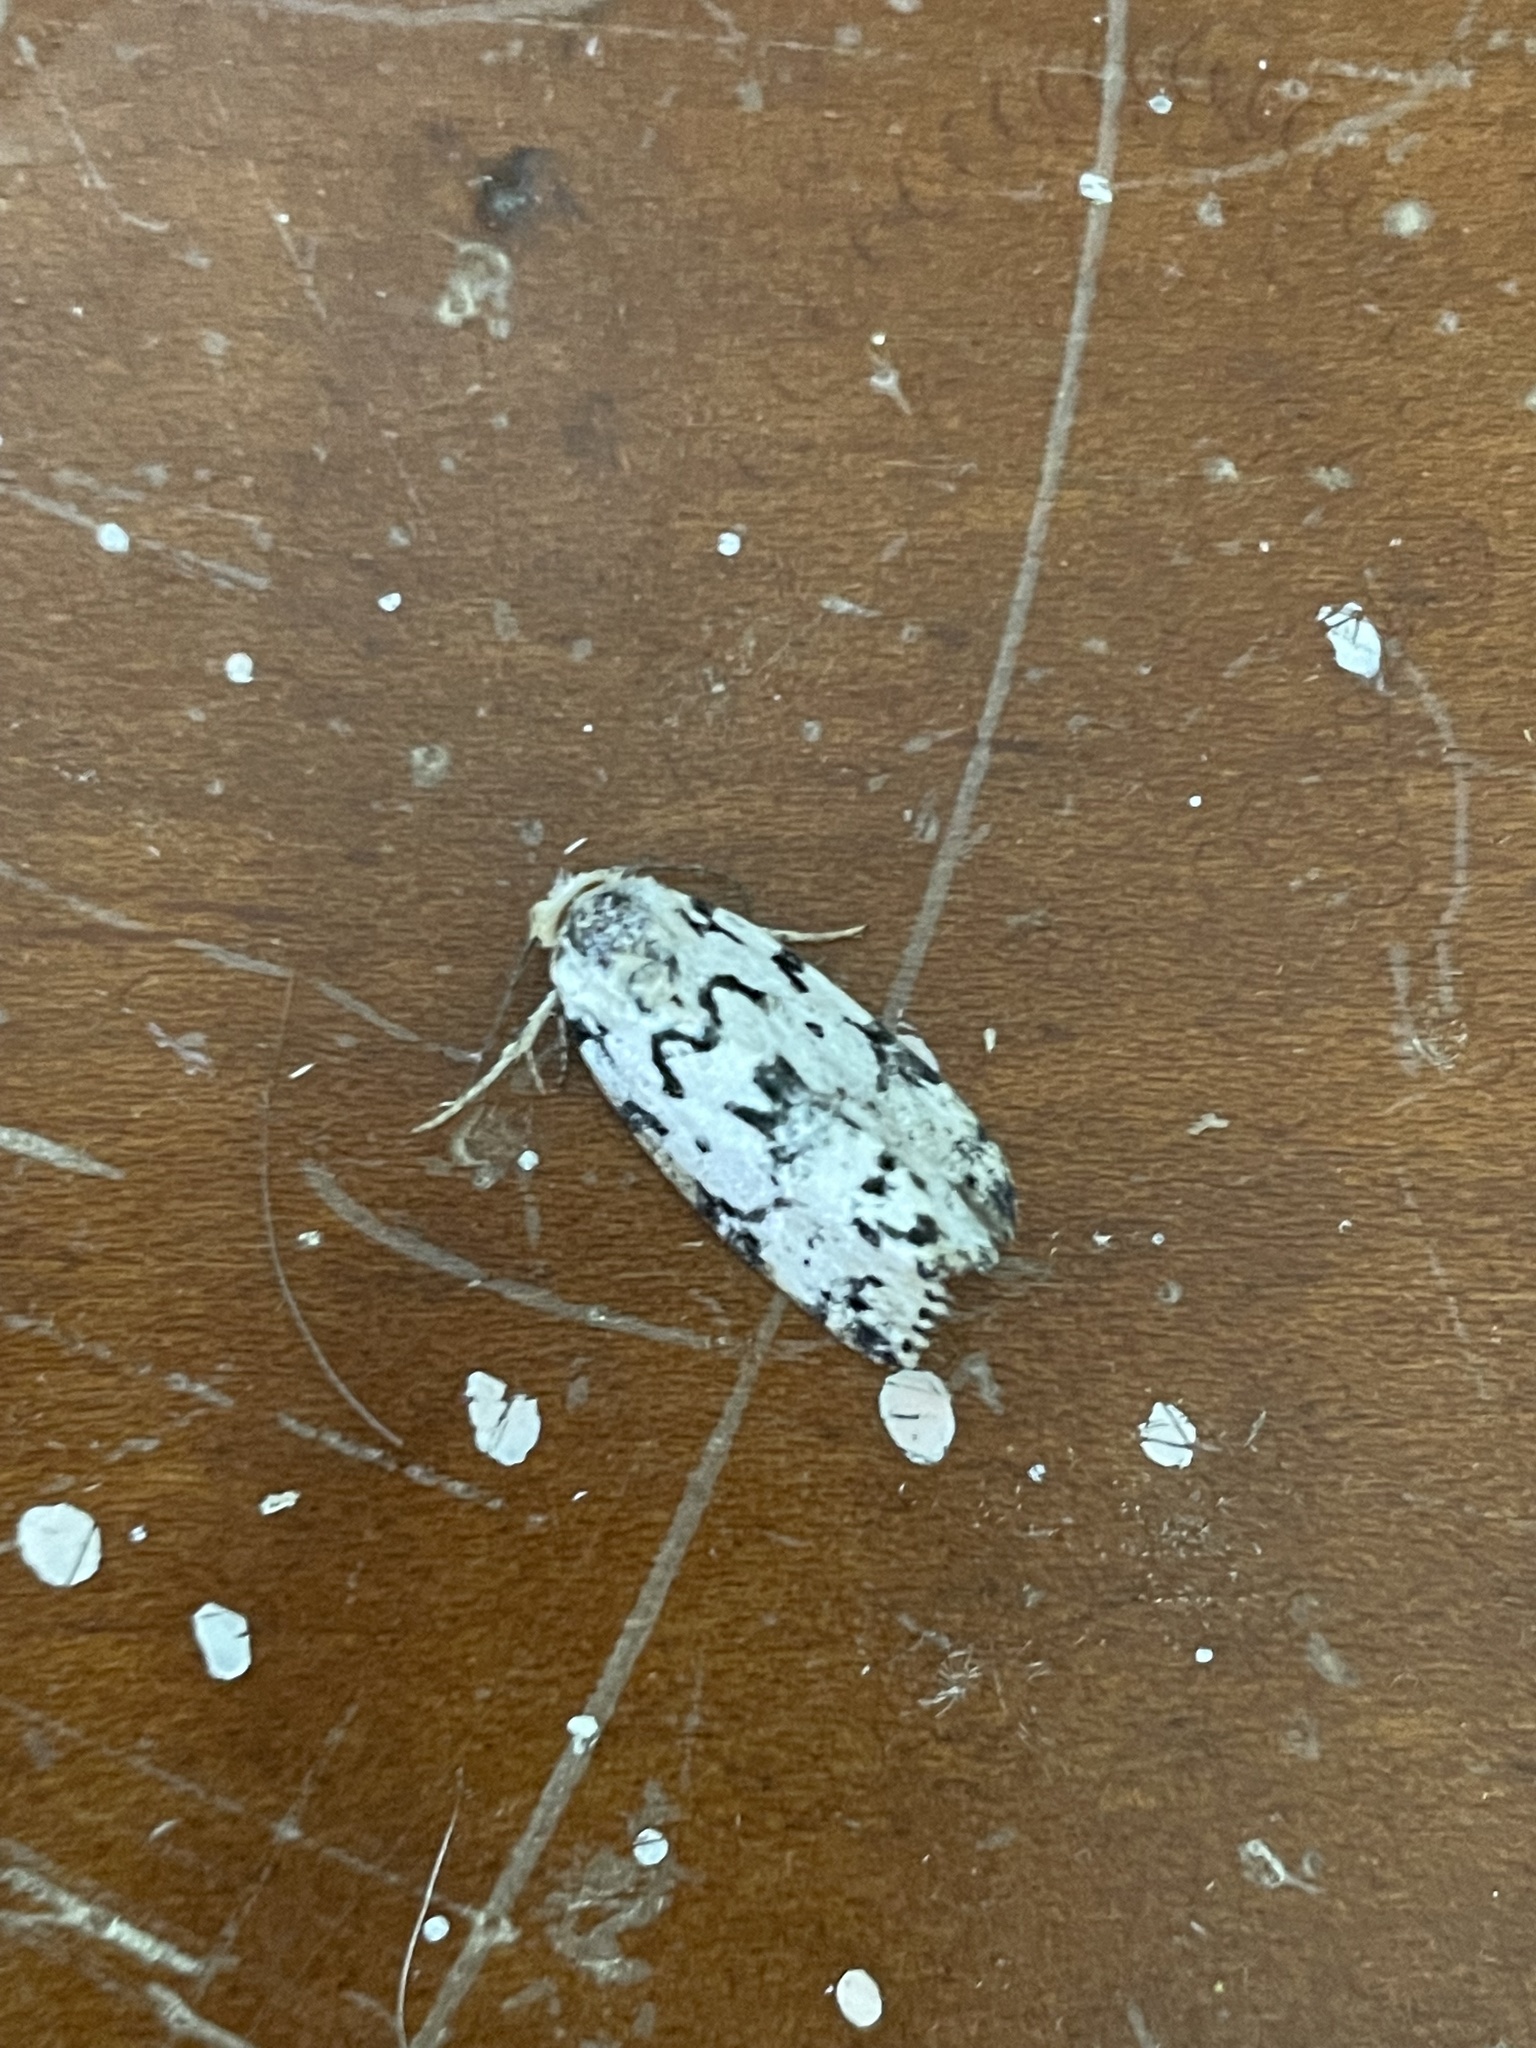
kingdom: Animalia
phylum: Arthropoda
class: Insecta
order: Lepidoptera
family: Noctuidae
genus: Polygrammate
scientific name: Polygrammate hebraeicum
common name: Hebrew moth
